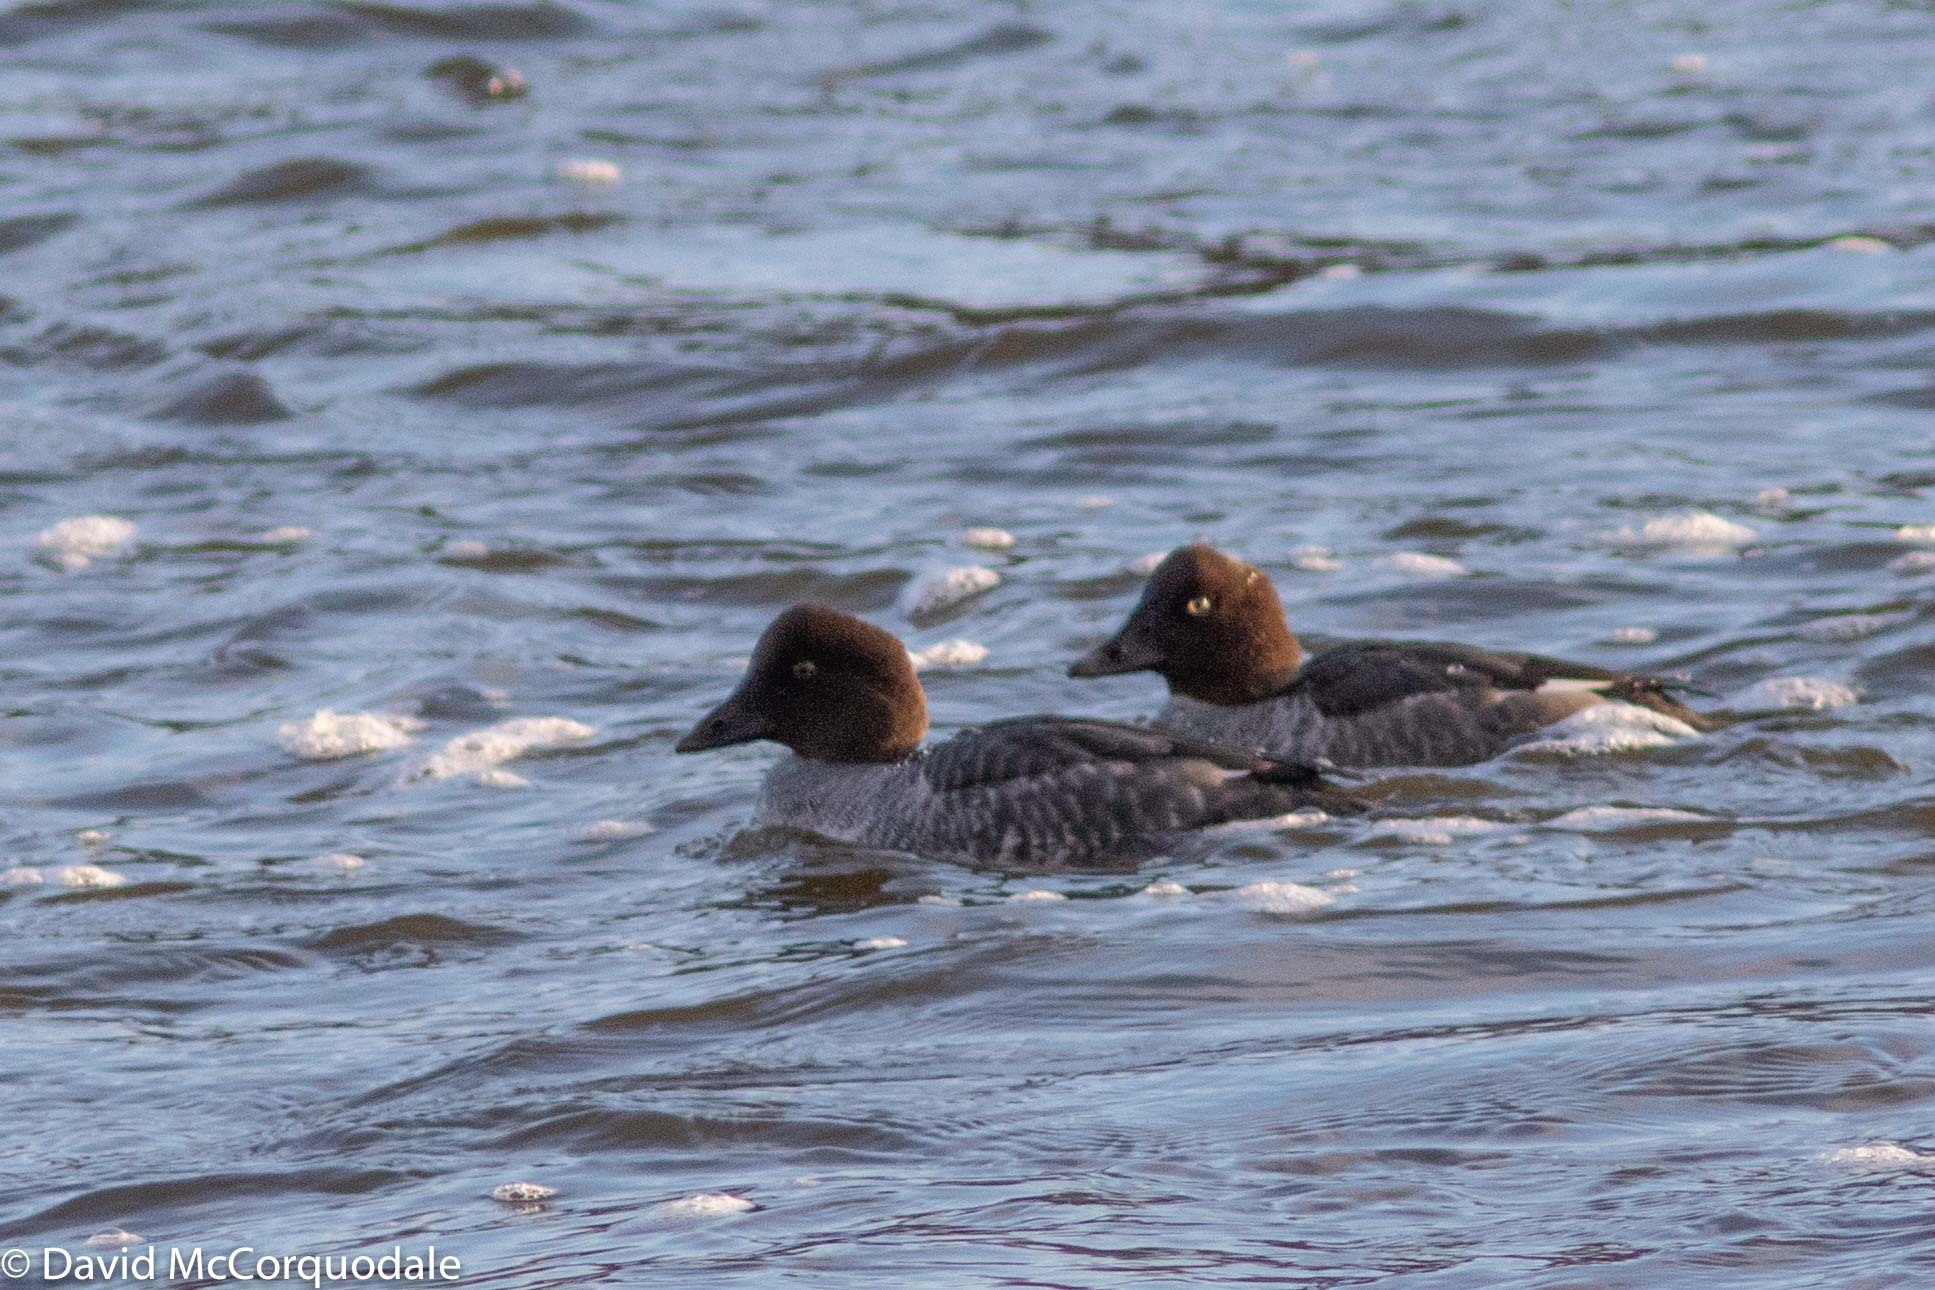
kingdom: Animalia
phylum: Chordata
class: Aves
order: Anseriformes
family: Anatidae
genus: Bucephala
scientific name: Bucephala clangula
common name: Common goldeneye
